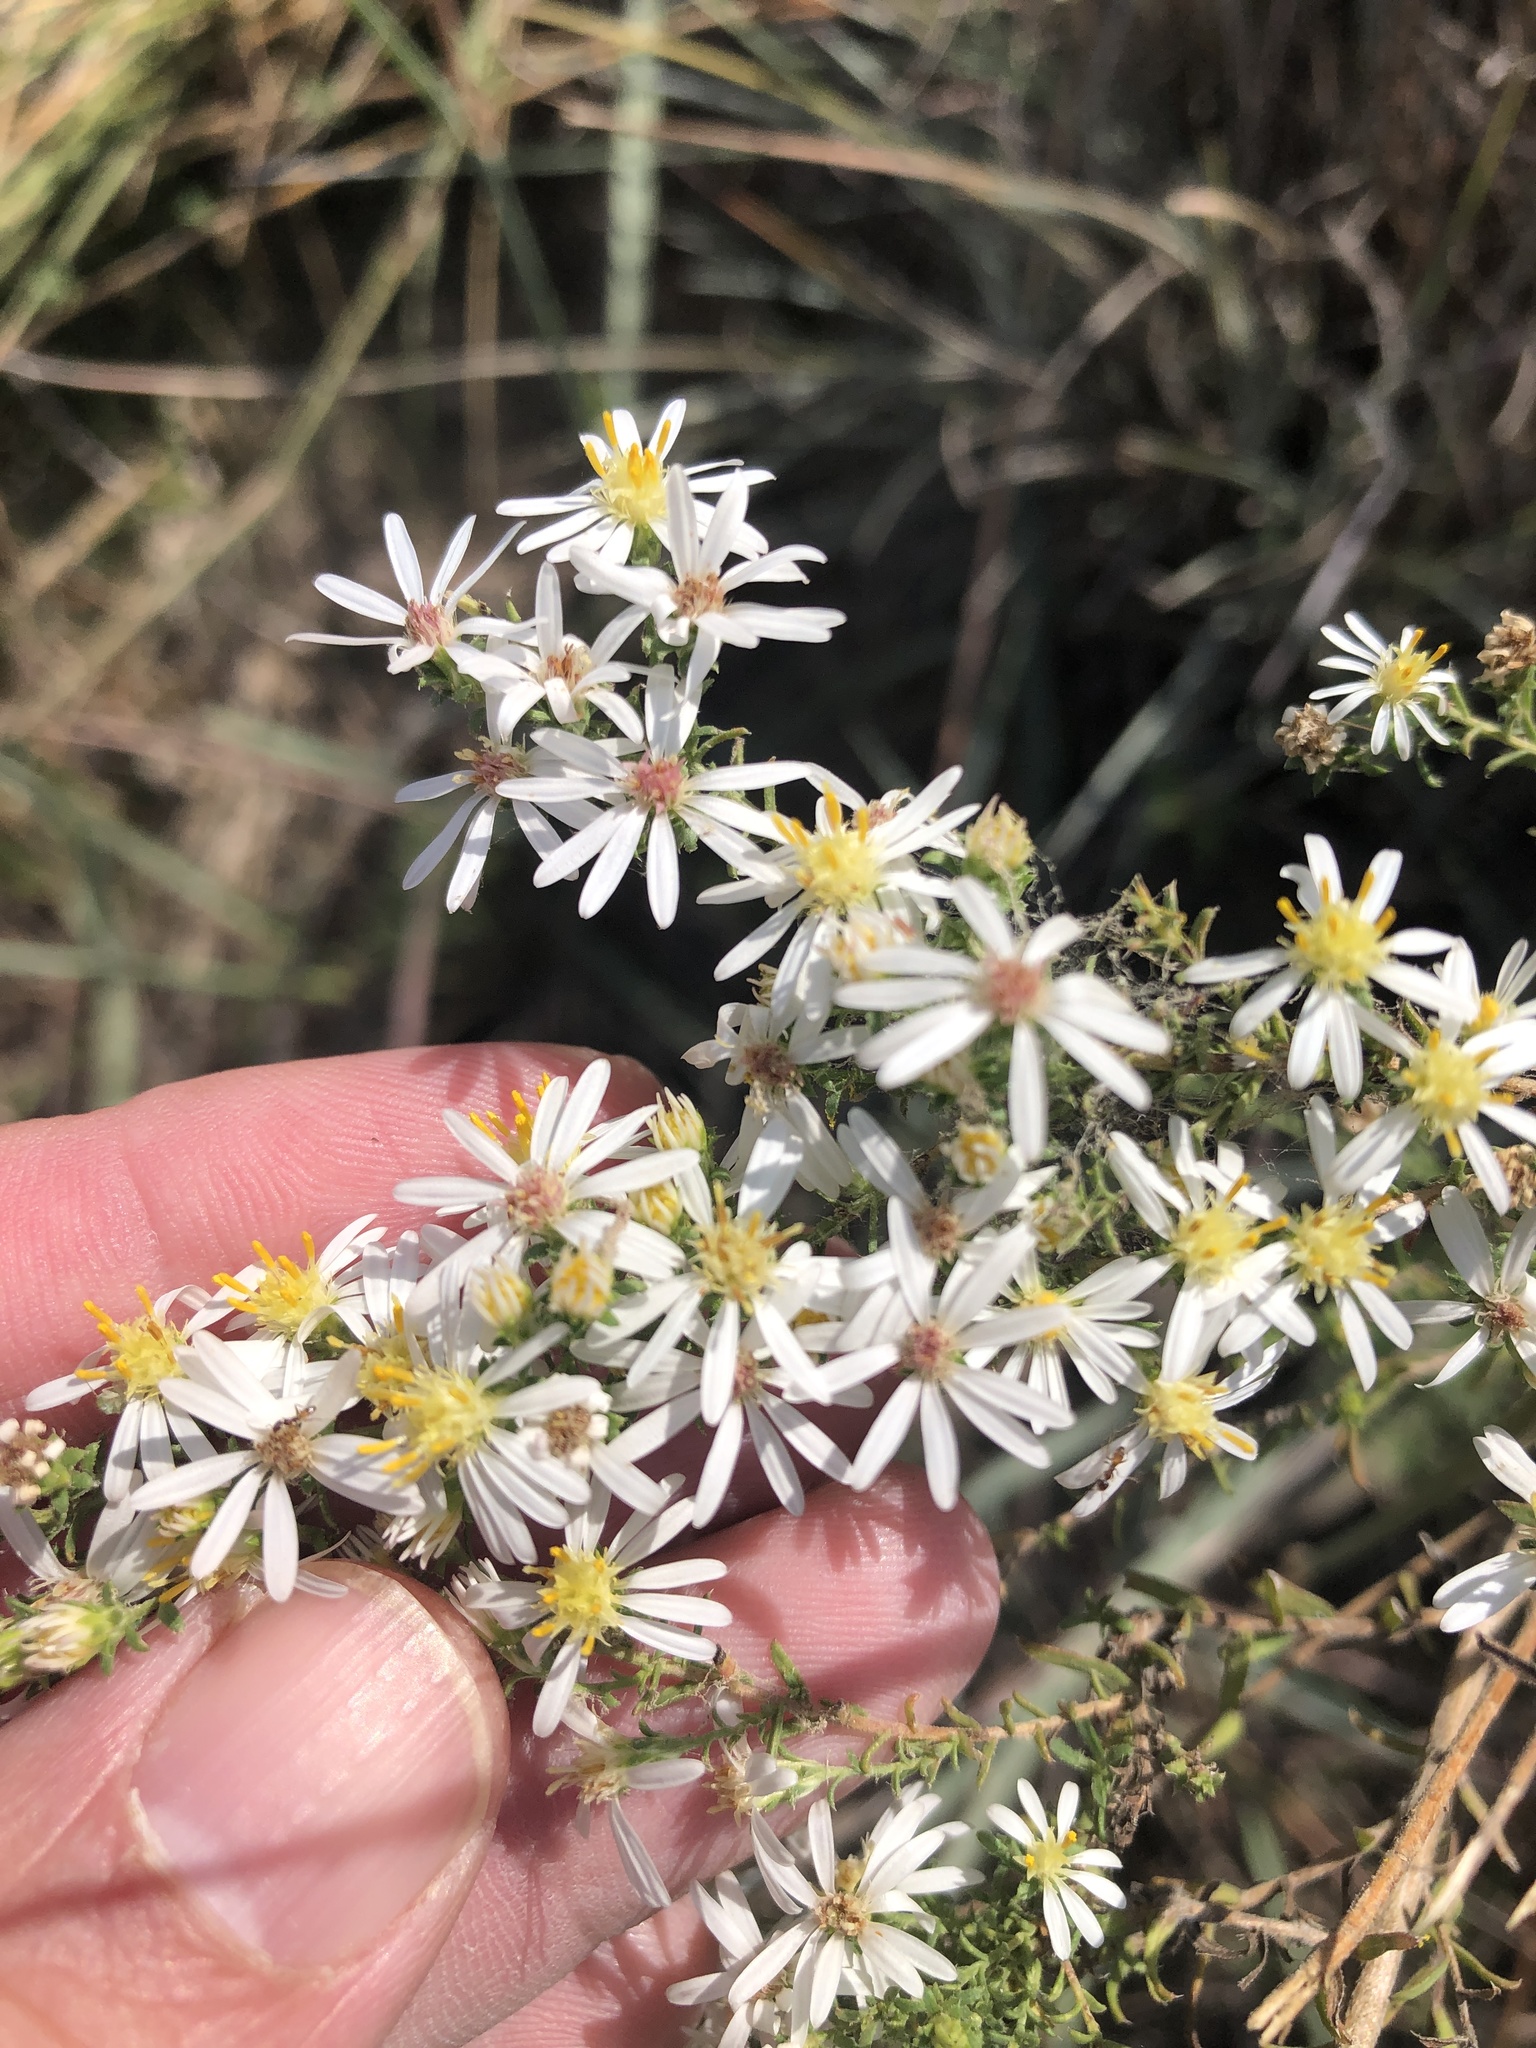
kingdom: Plantae
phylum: Tracheophyta
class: Magnoliopsida
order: Asterales
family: Asteraceae
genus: Symphyotrichum
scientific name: Symphyotrichum ericoides
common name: Heath aster
